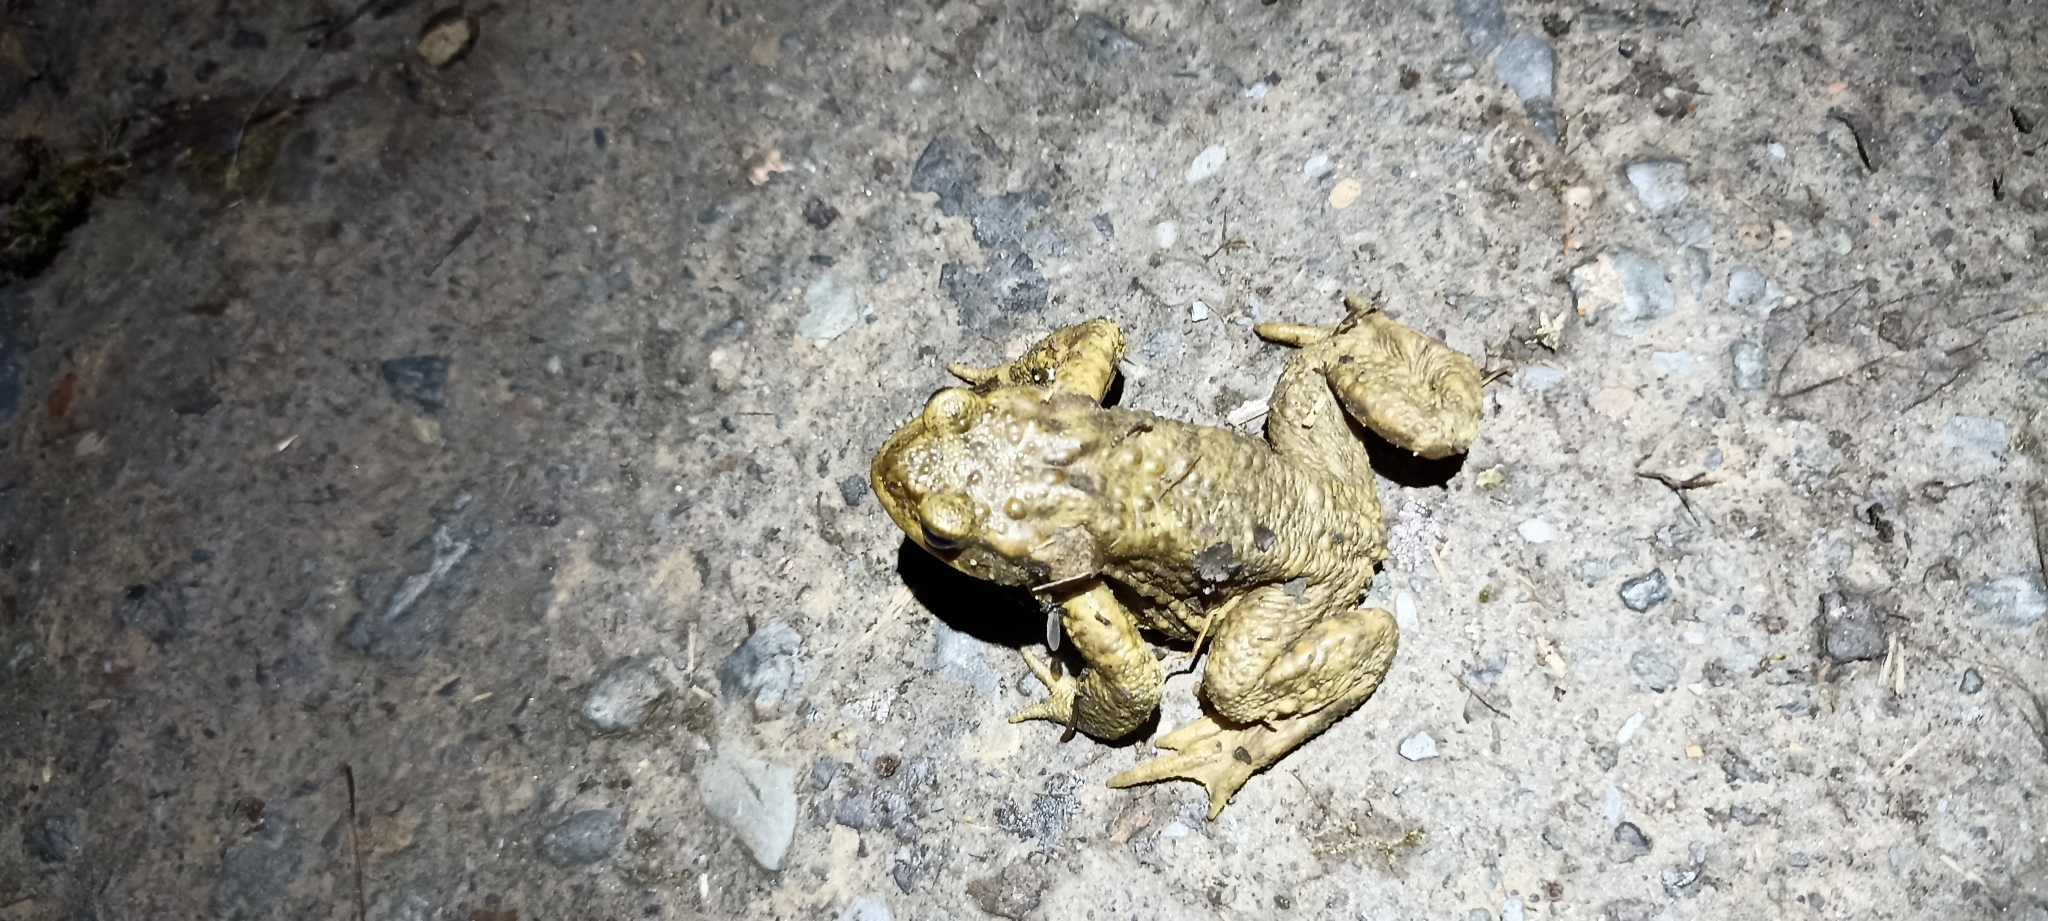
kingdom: Animalia
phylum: Chordata
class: Amphibia
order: Anura
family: Bufonidae
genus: Bufo
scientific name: Bufo spinosus
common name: Western common toad
